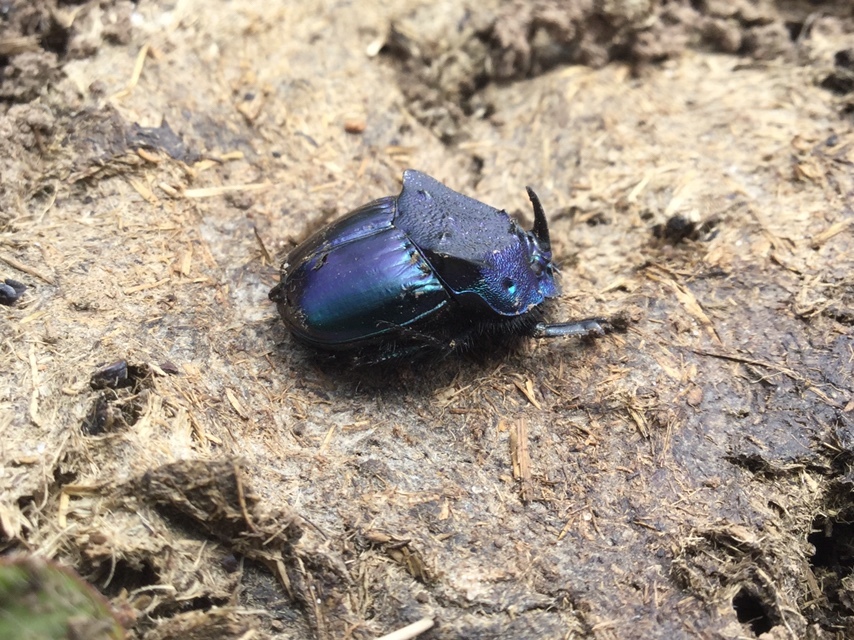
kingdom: Animalia
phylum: Arthropoda
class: Insecta
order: Coleoptera
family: Scarabaeidae
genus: Phanaeus
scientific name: Phanaeus quadridens
